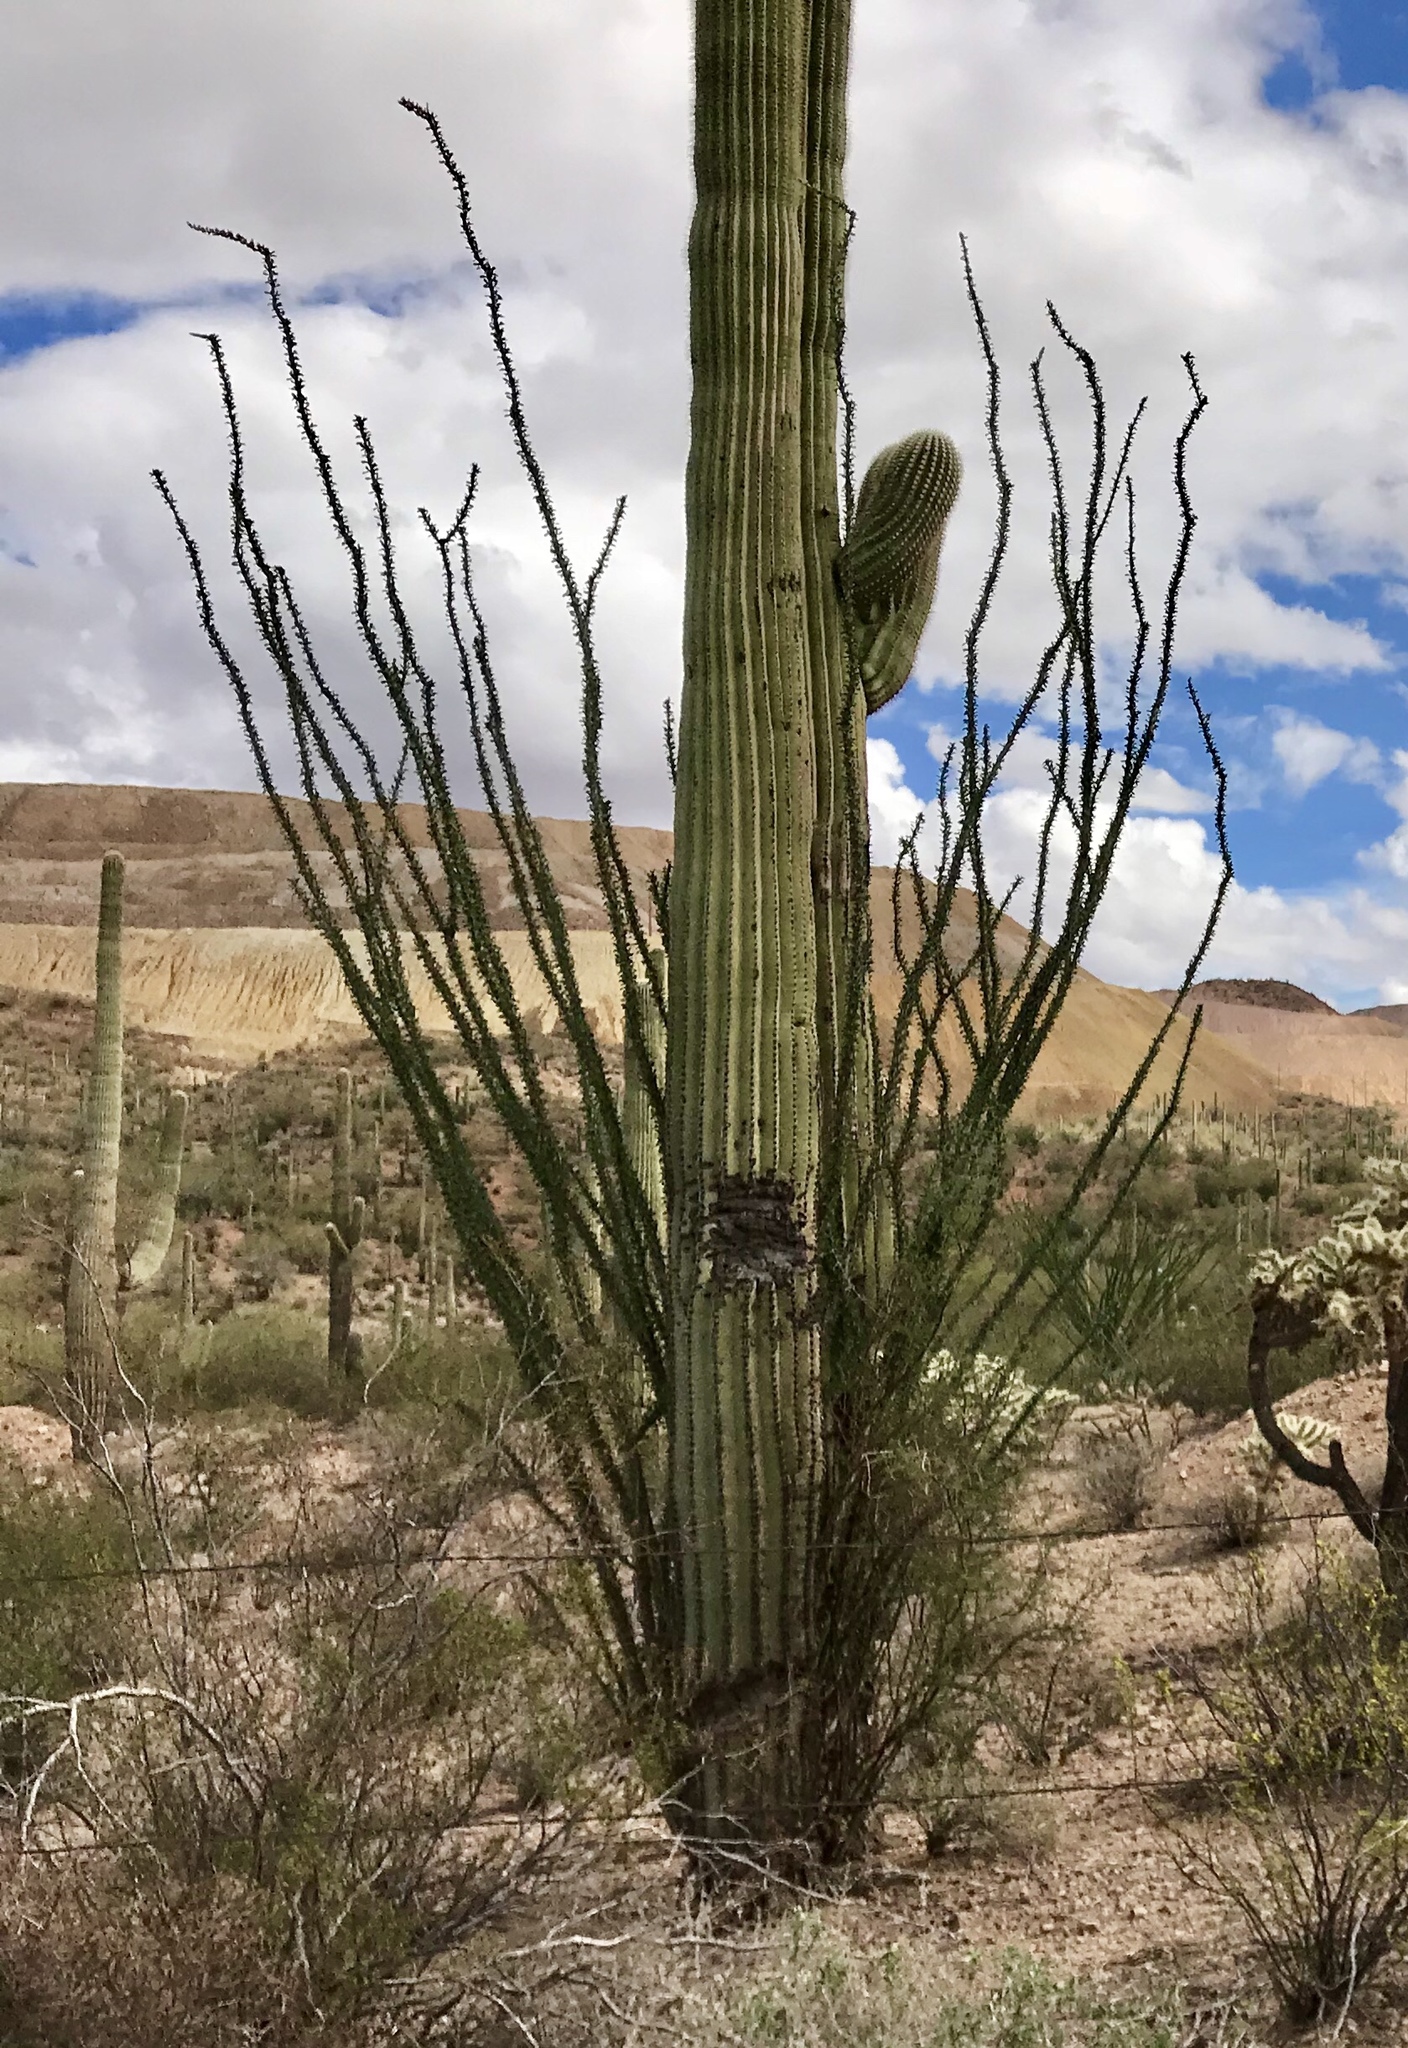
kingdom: Plantae
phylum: Tracheophyta
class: Magnoliopsida
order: Ericales
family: Fouquieriaceae
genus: Fouquieria
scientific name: Fouquieria splendens
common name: Vine-cactus
